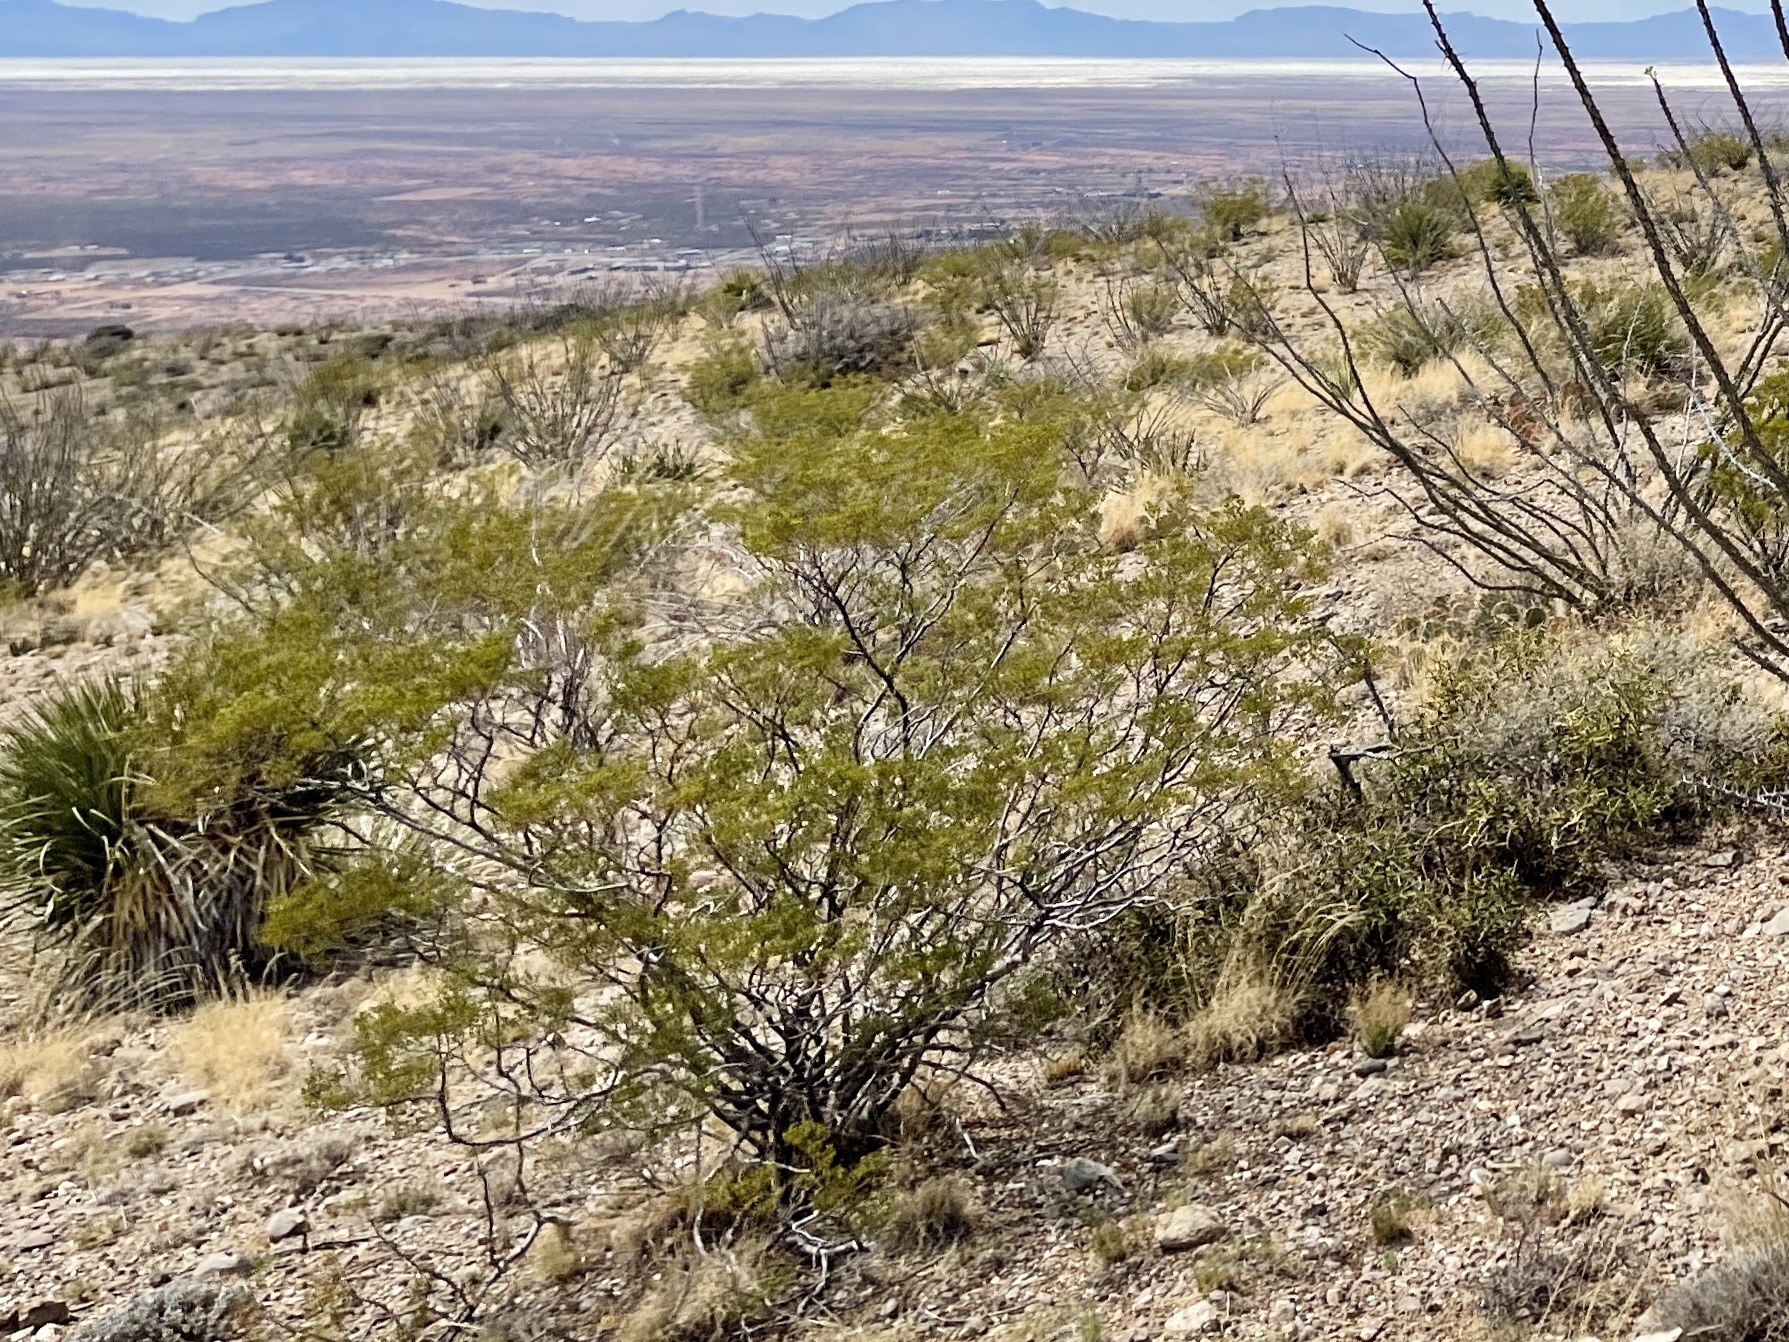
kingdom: Plantae
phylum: Tracheophyta
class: Magnoliopsida
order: Zygophyllales
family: Zygophyllaceae
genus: Larrea
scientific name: Larrea tridentata
